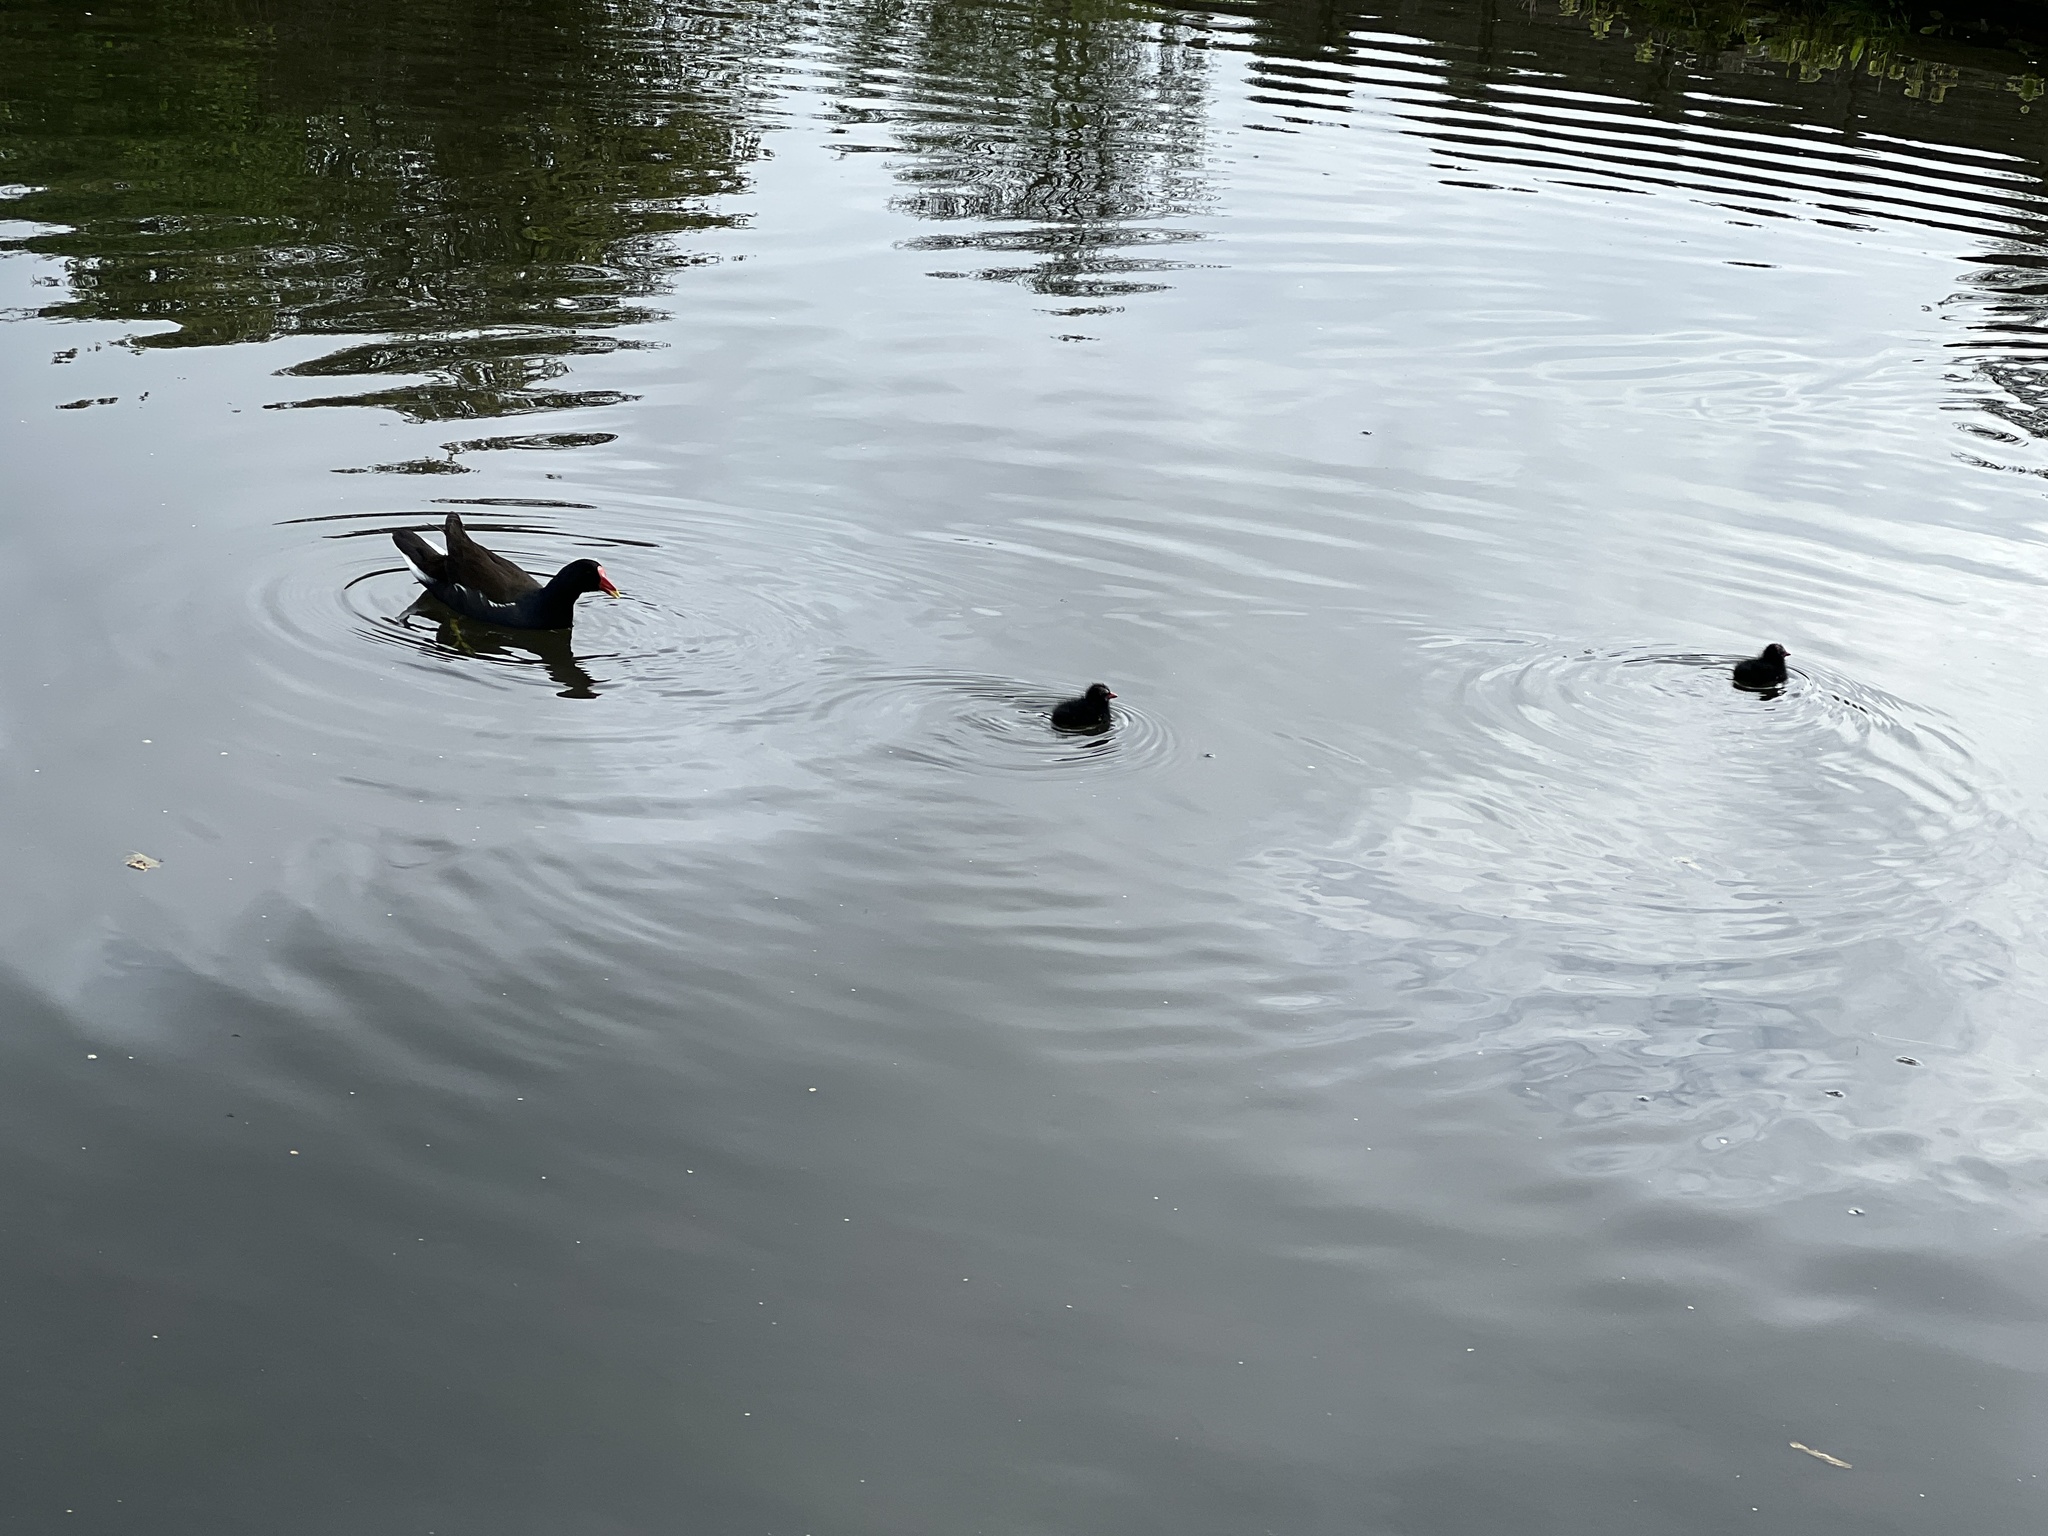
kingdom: Animalia
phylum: Chordata
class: Aves
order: Gruiformes
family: Rallidae
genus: Gallinula
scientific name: Gallinula chloropus
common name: Common moorhen
